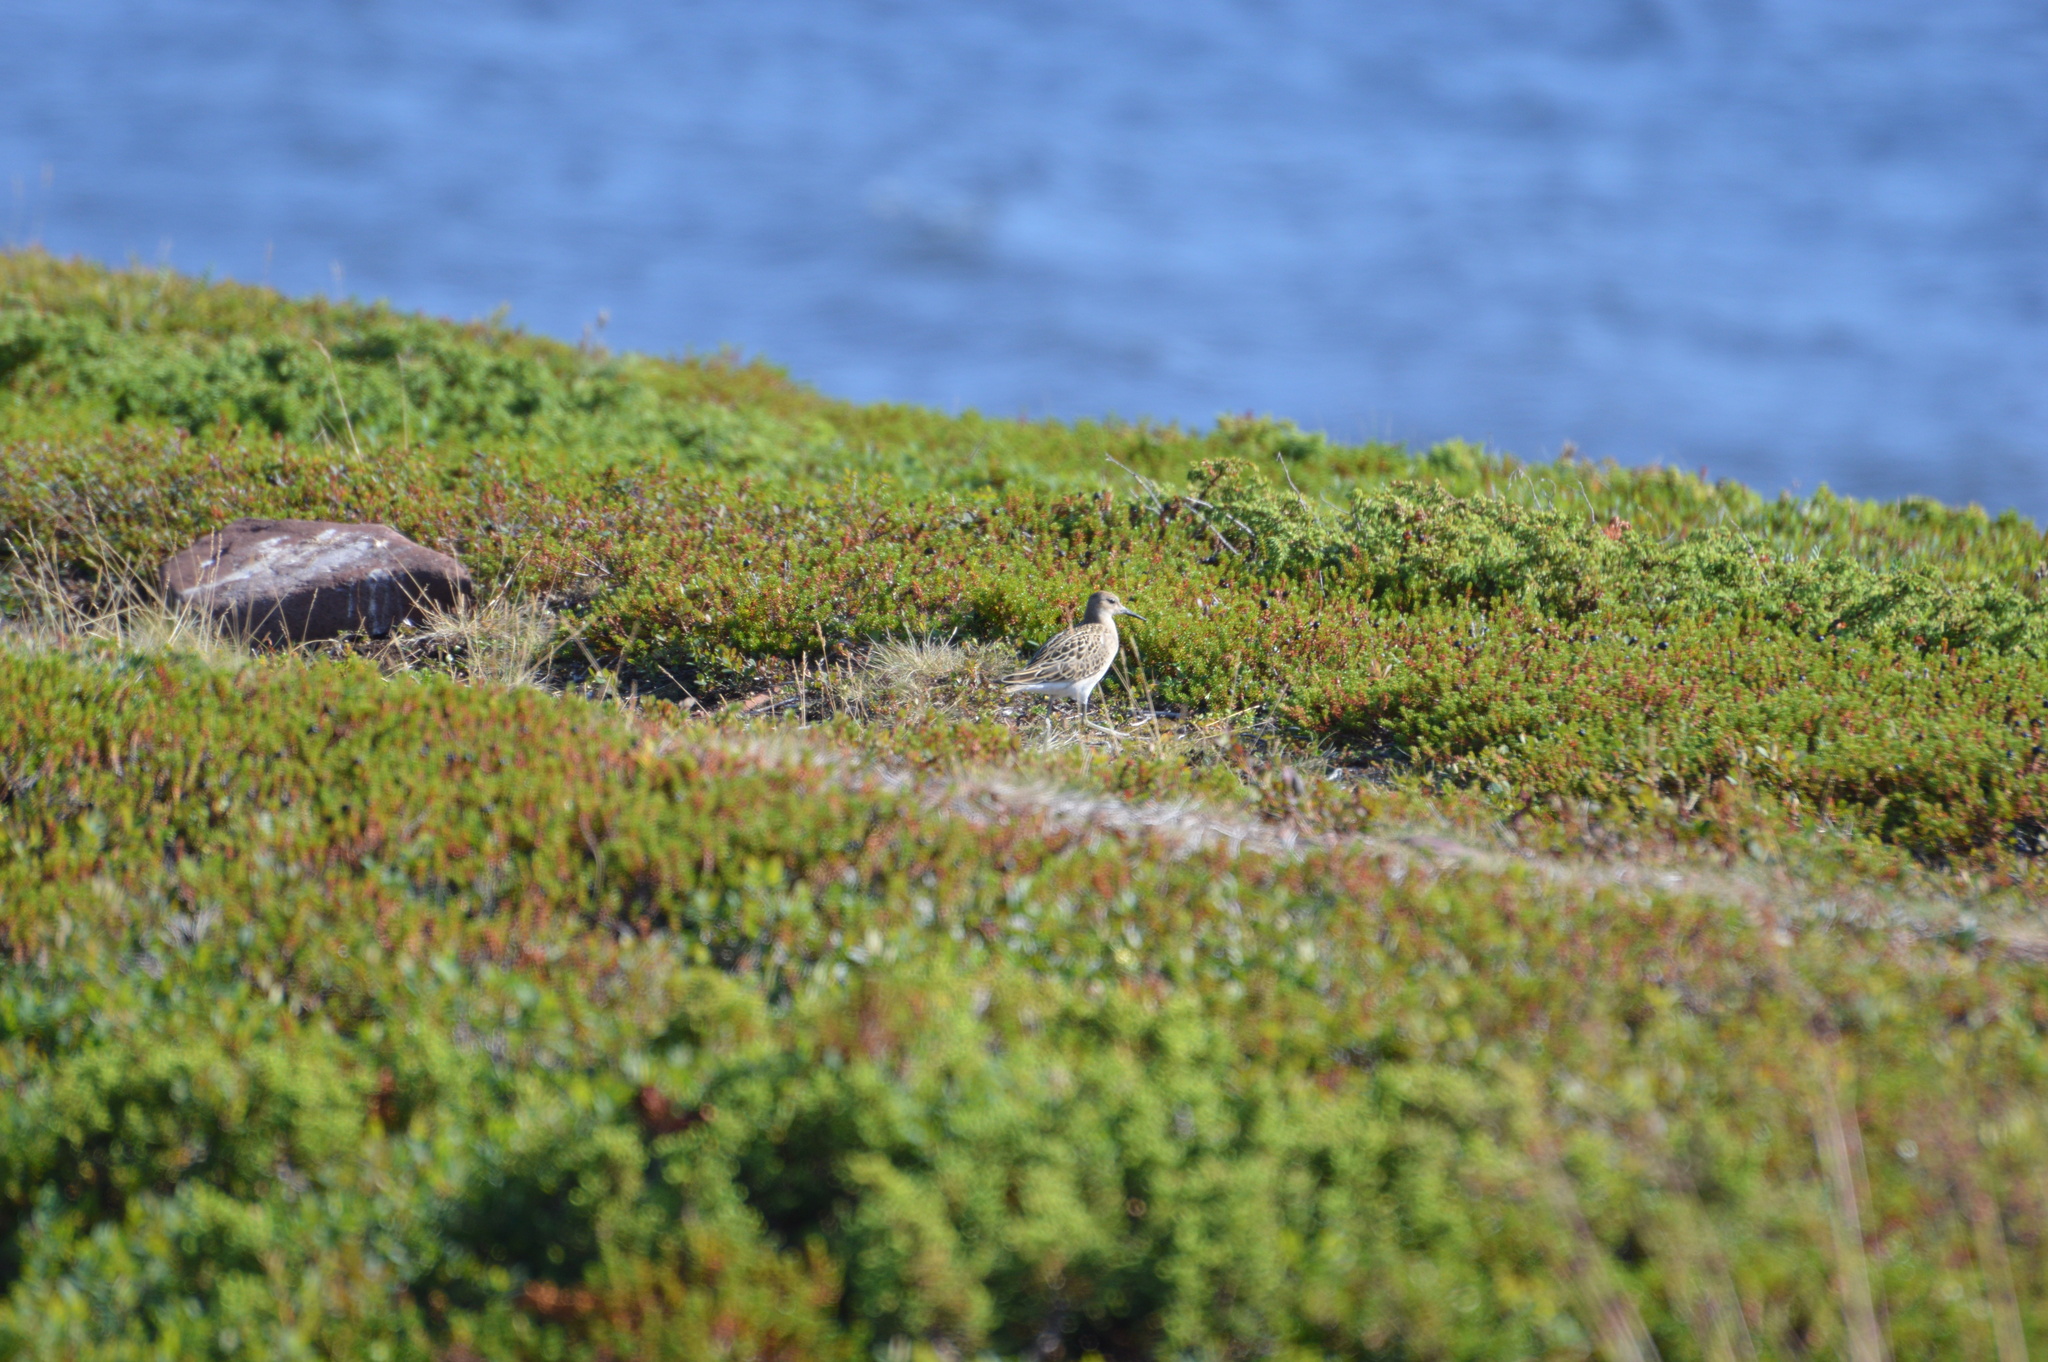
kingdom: Animalia
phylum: Chordata
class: Aves
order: Charadriiformes
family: Scolopacidae
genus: Calidris
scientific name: Calidris pugnax
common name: Ruff
